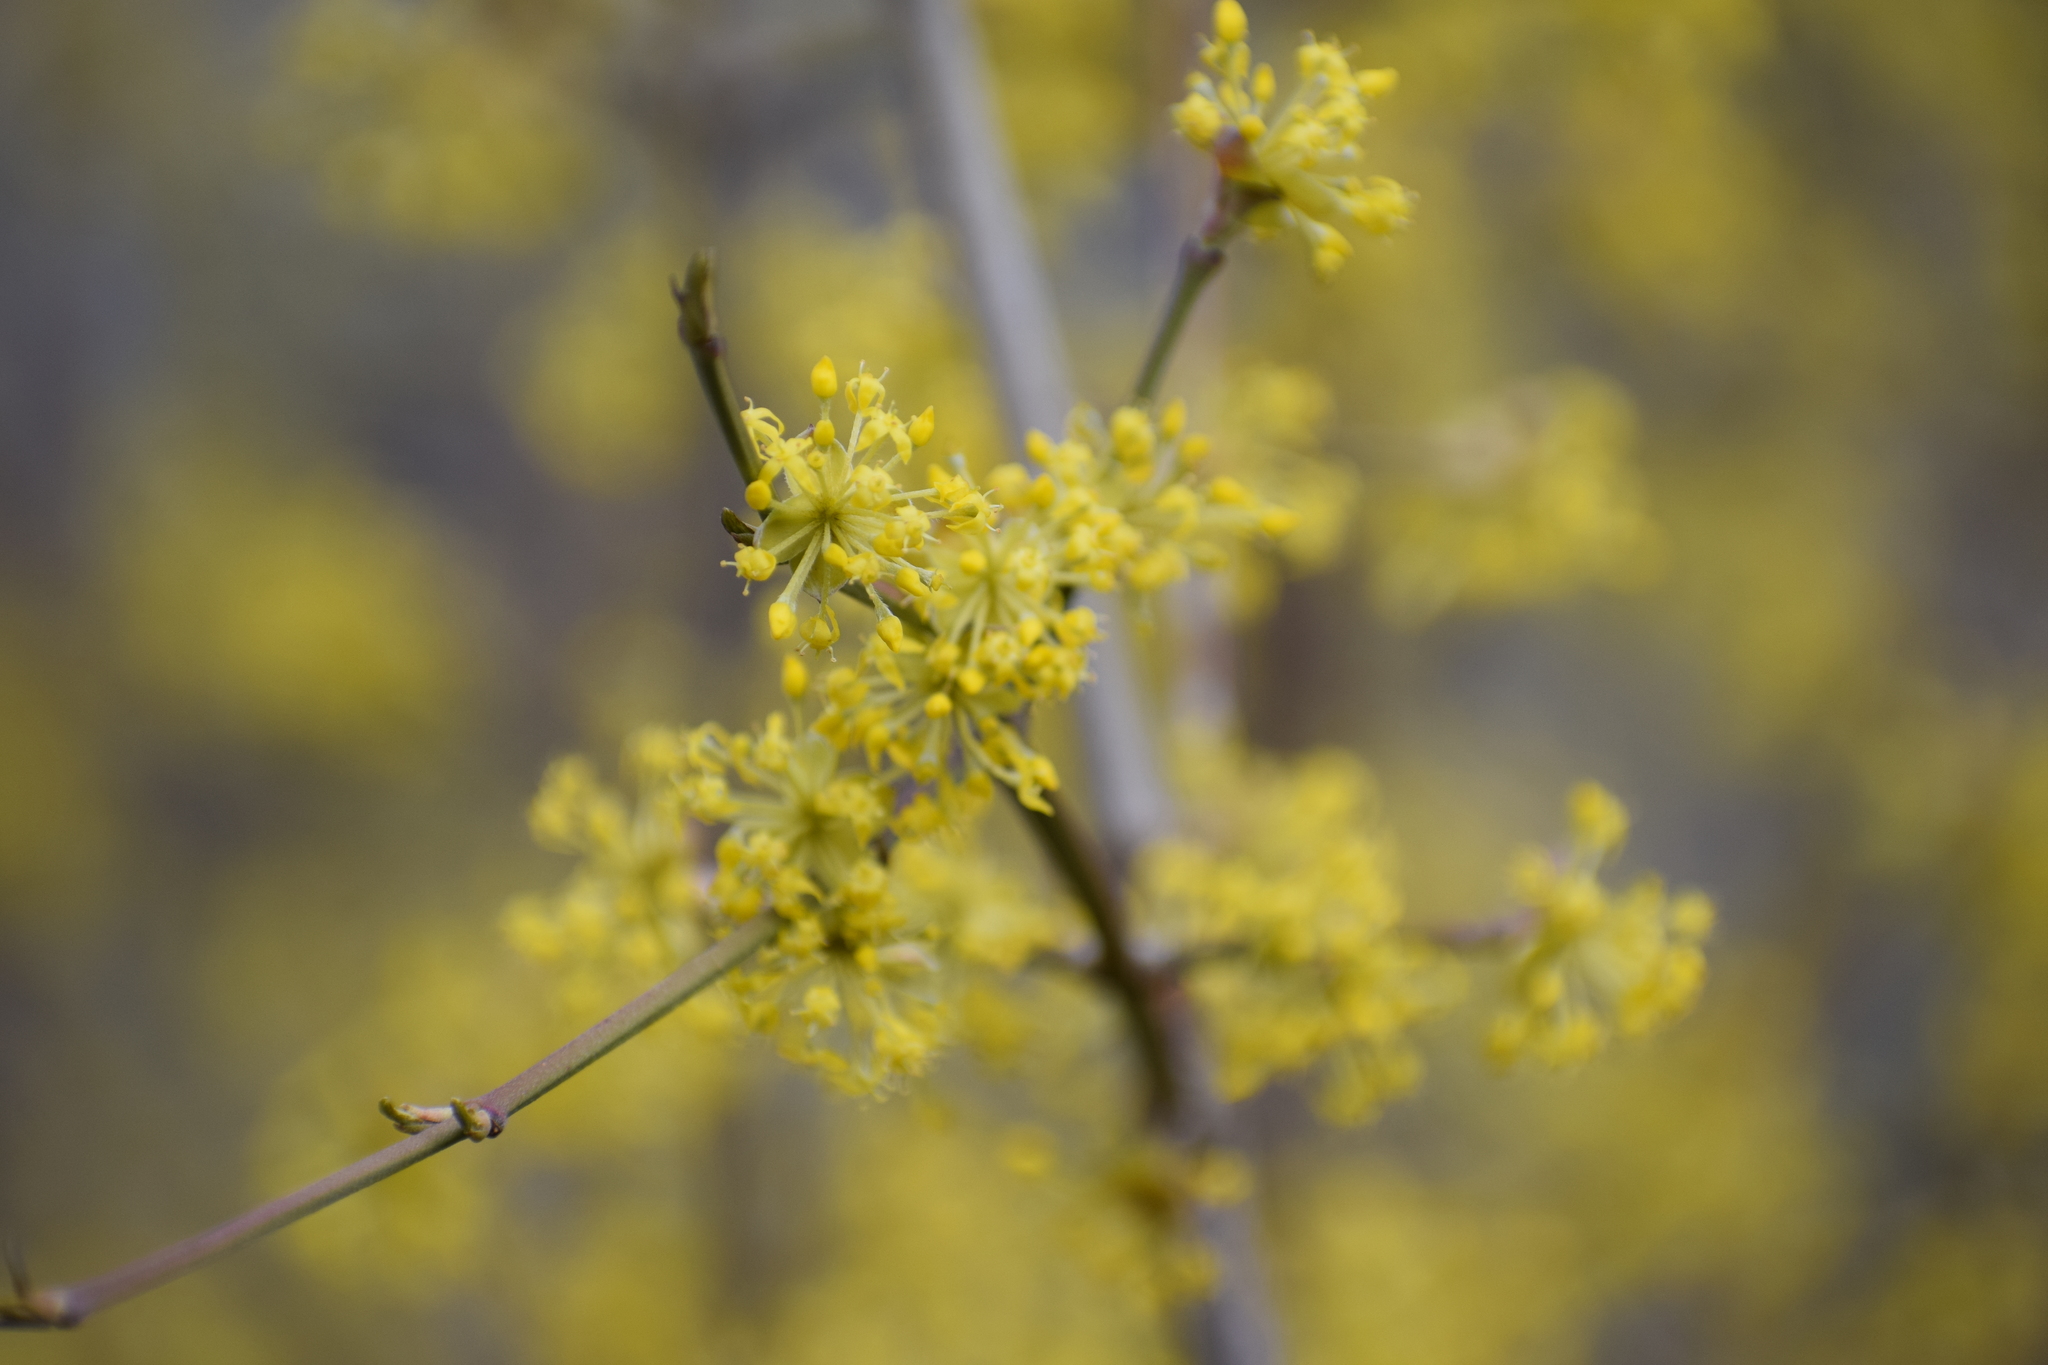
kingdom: Plantae
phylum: Tracheophyta
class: Magnoliopsida
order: Cornales
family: Cornaceae
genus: Cornus
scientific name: Cornus mas
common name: Cornelian-cherry
